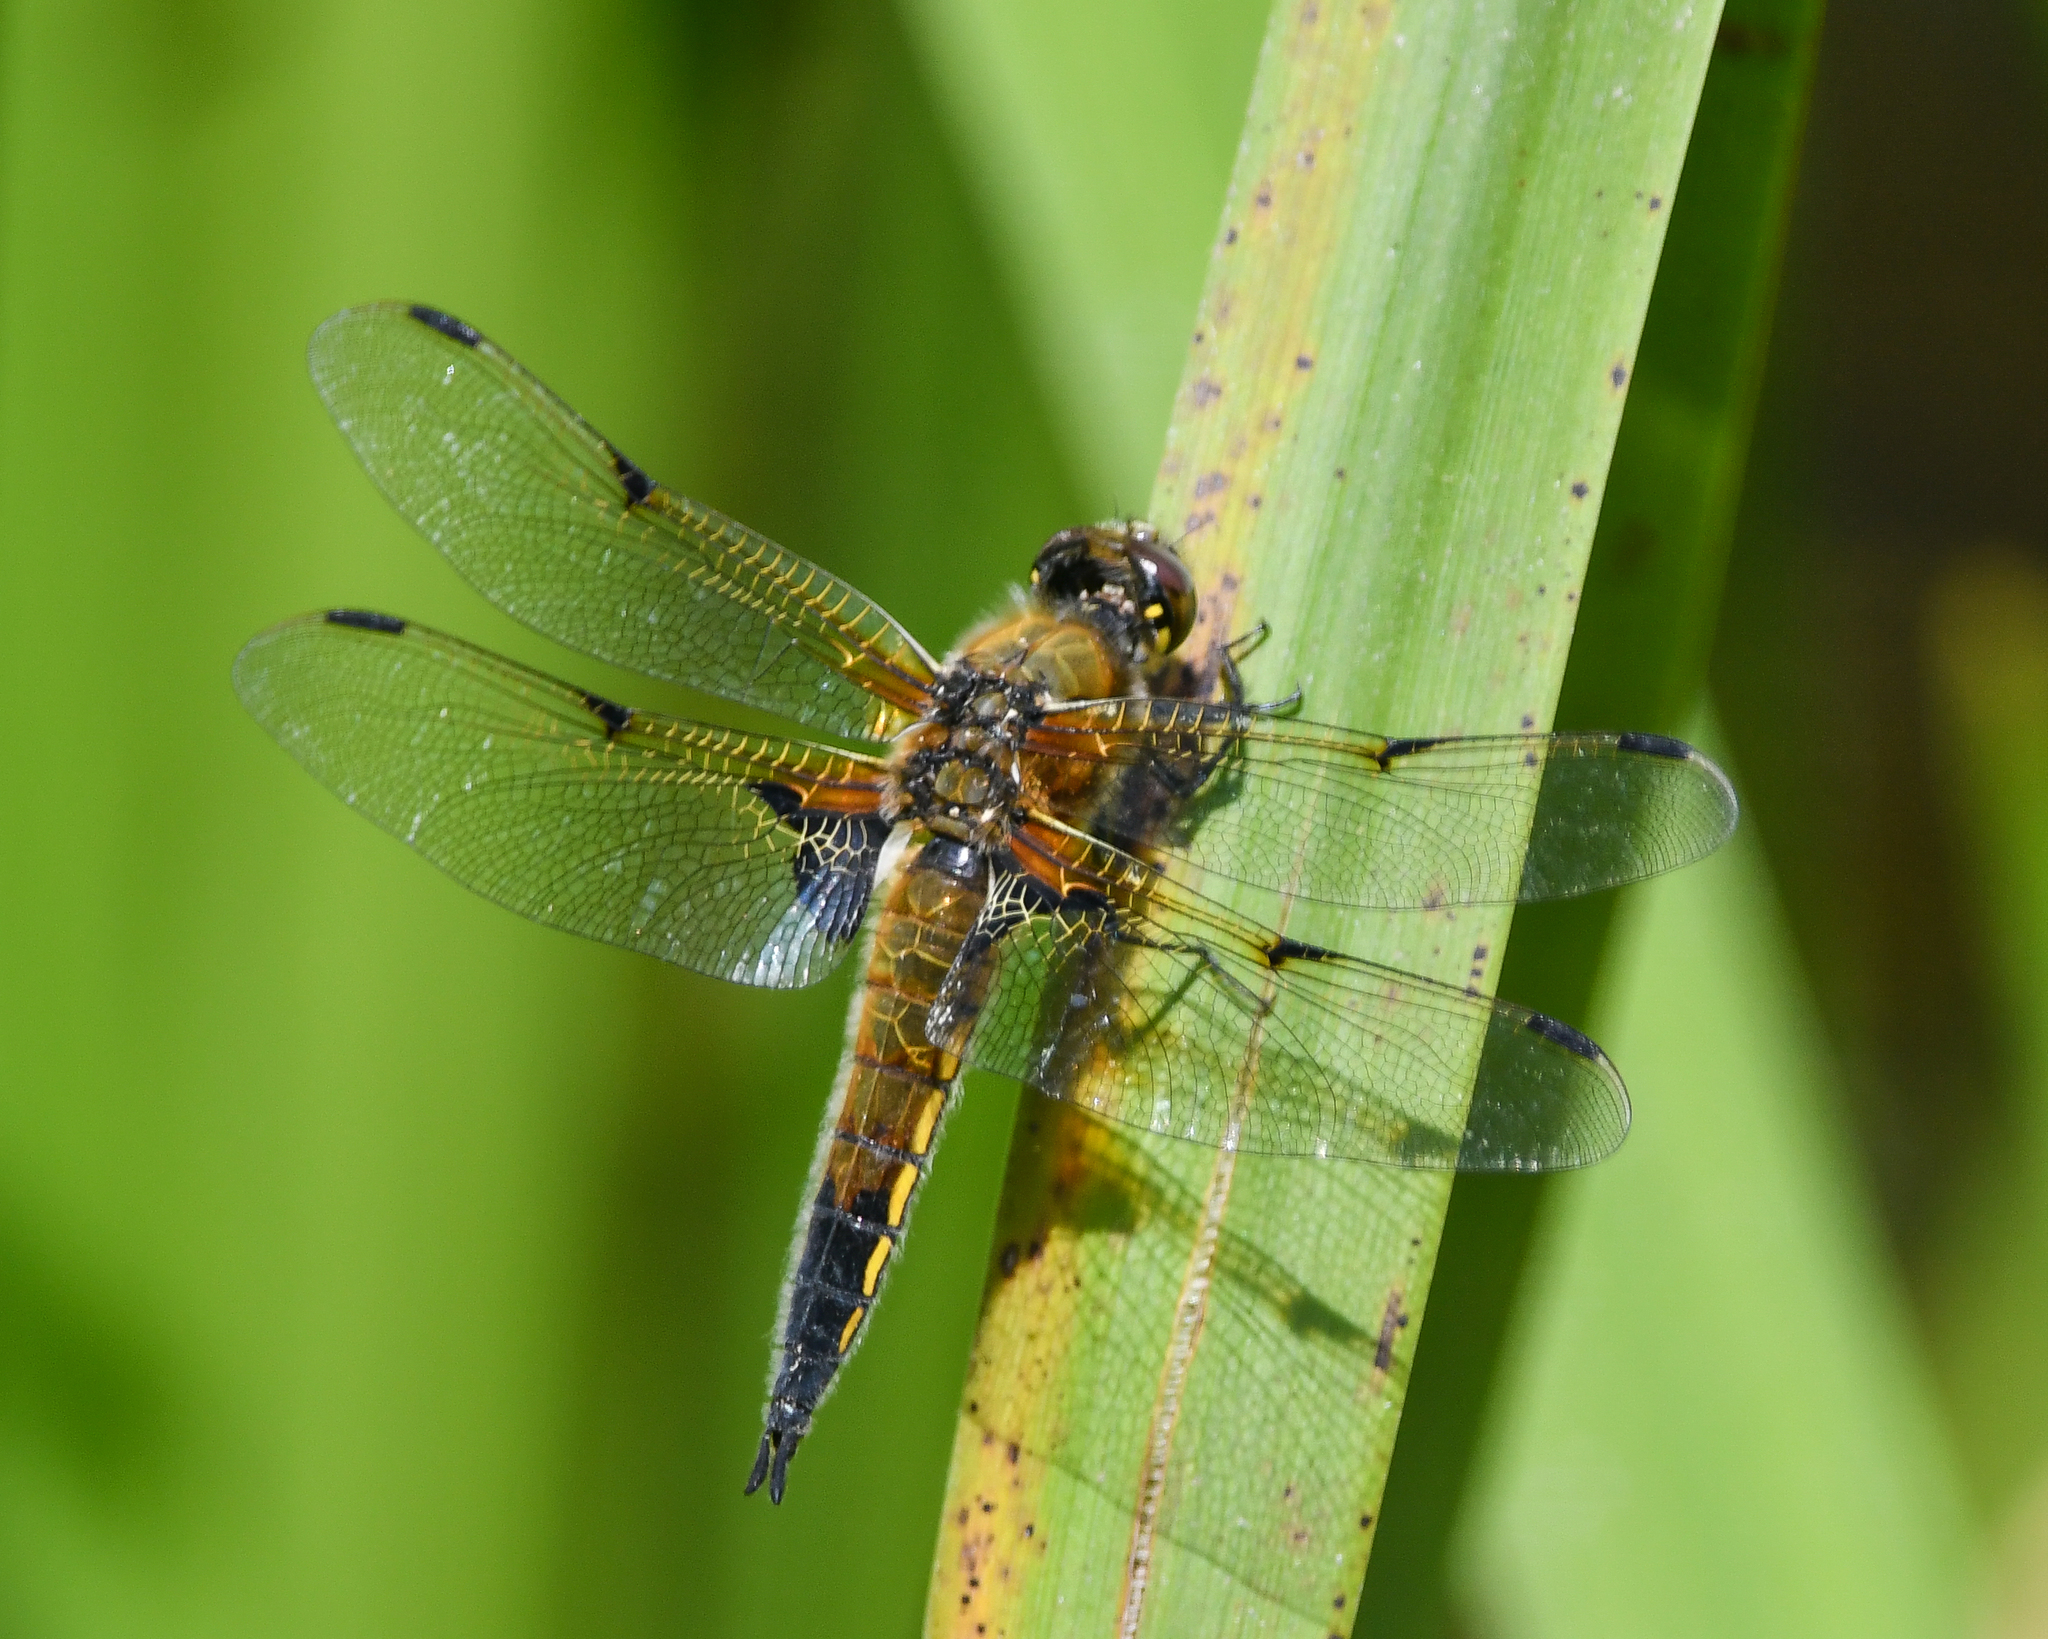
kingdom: Animalia
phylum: Arthropoda
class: Insecta
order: Odonata
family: Libellulidae
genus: Libellula
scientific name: Libellula quadrimaculata
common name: Four-spotted chaser
